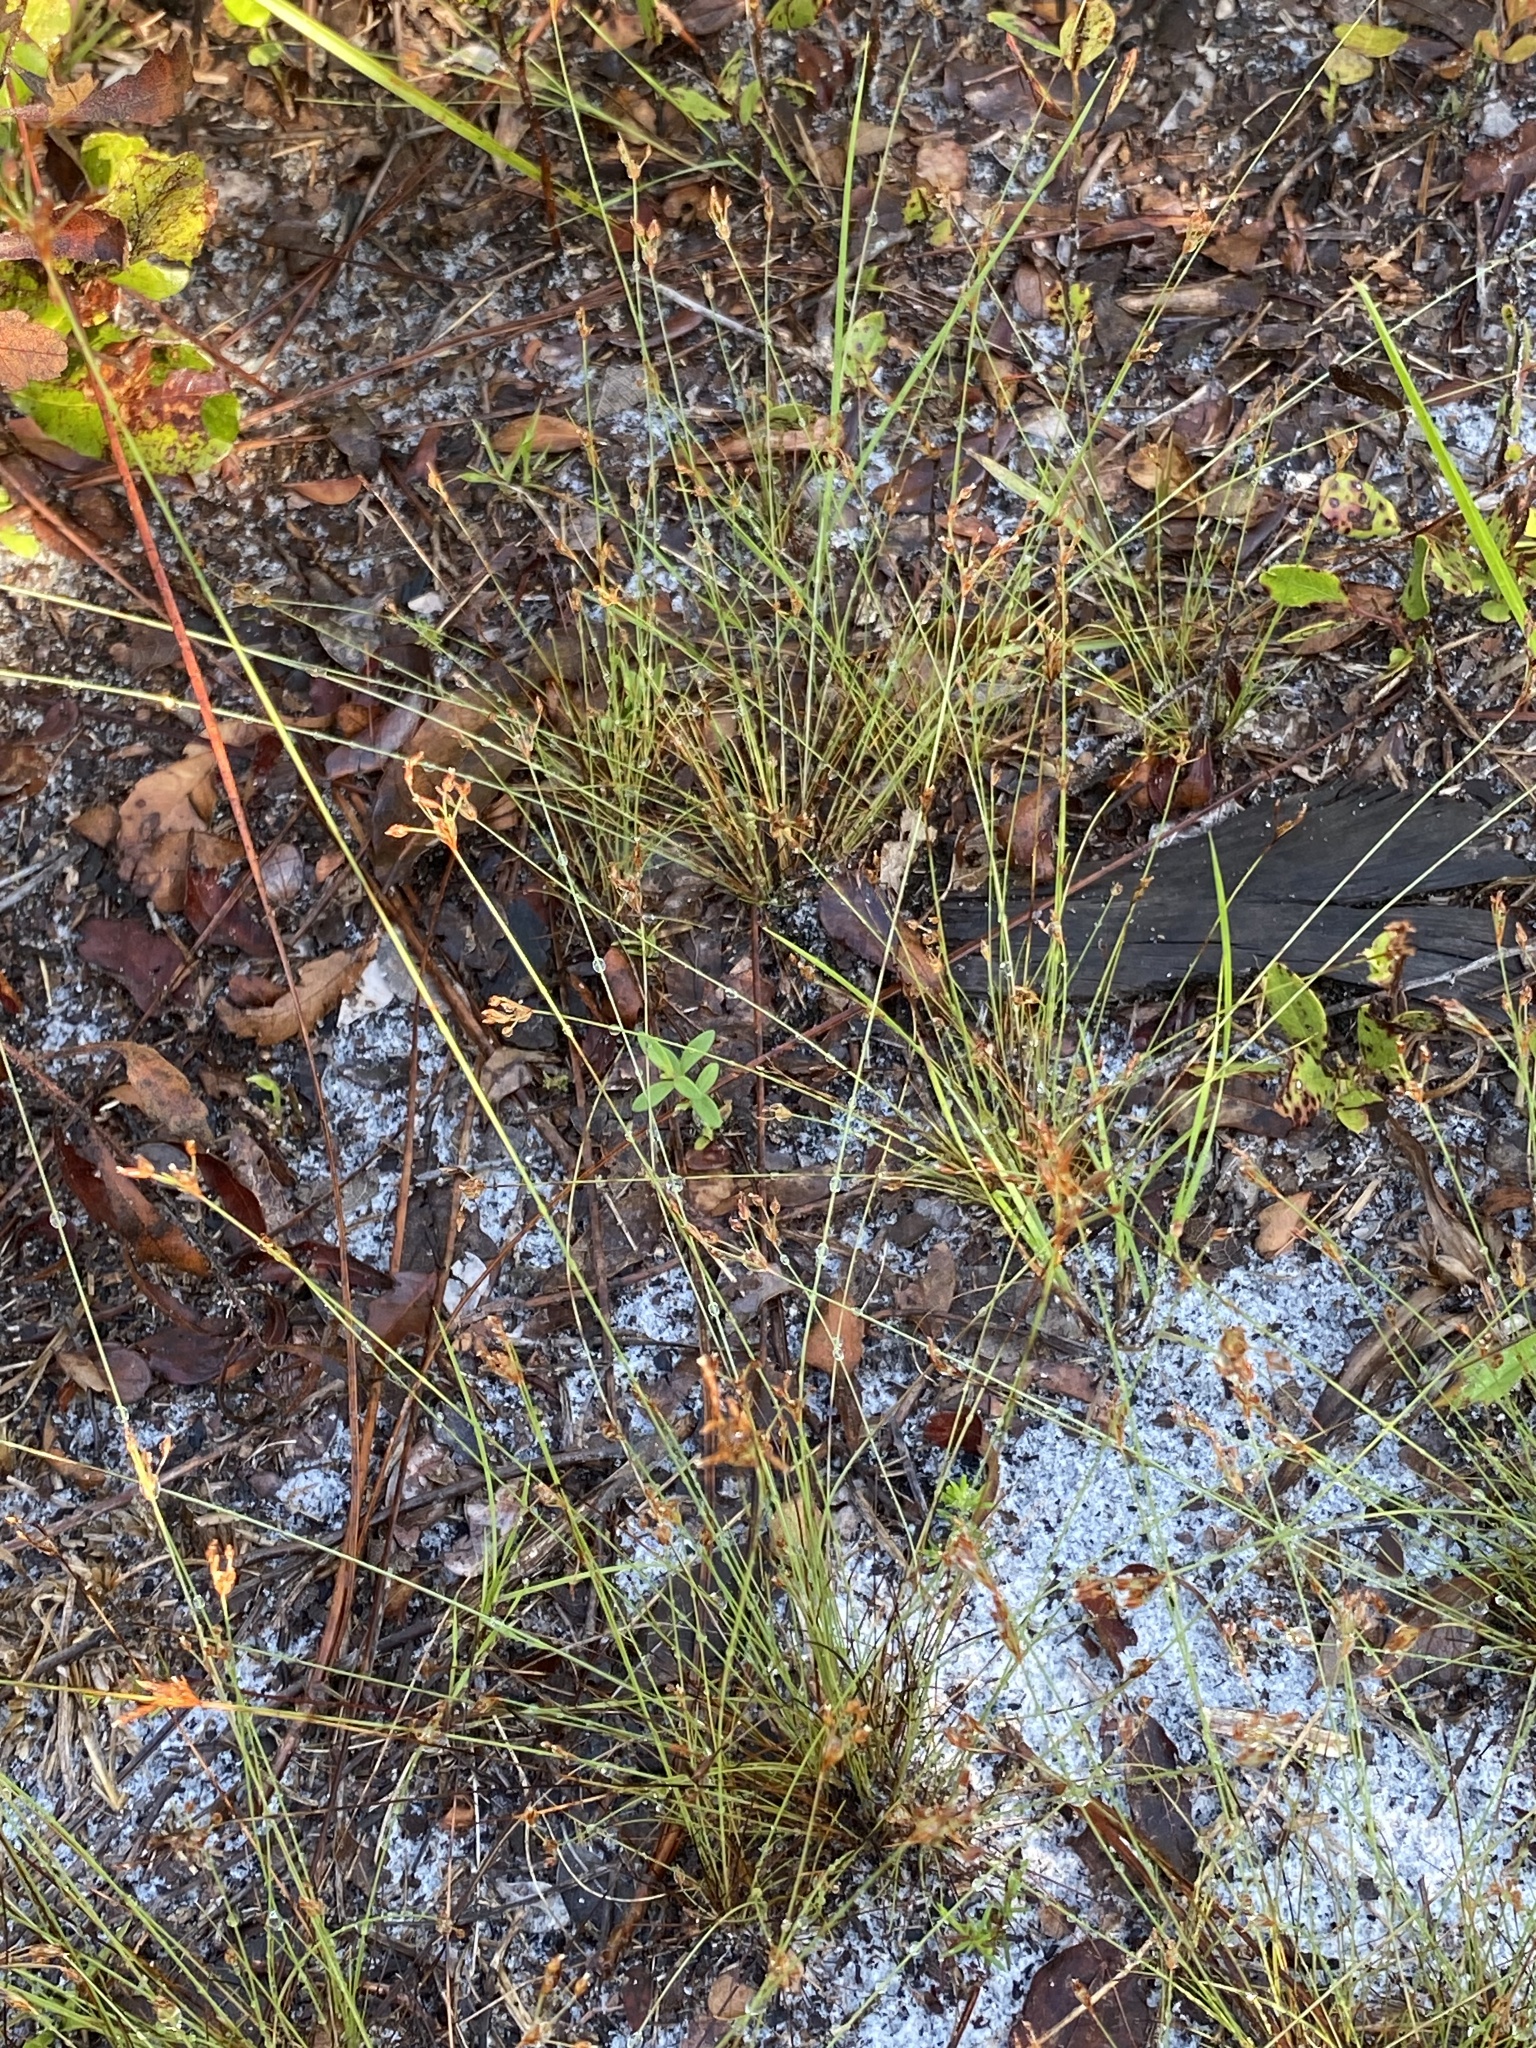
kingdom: Plantae
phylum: Tracheophyta
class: Liliopsida
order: Poales
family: Cyperaceae
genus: Bulbostylis
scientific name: Bulbostylis ciliatifolia
